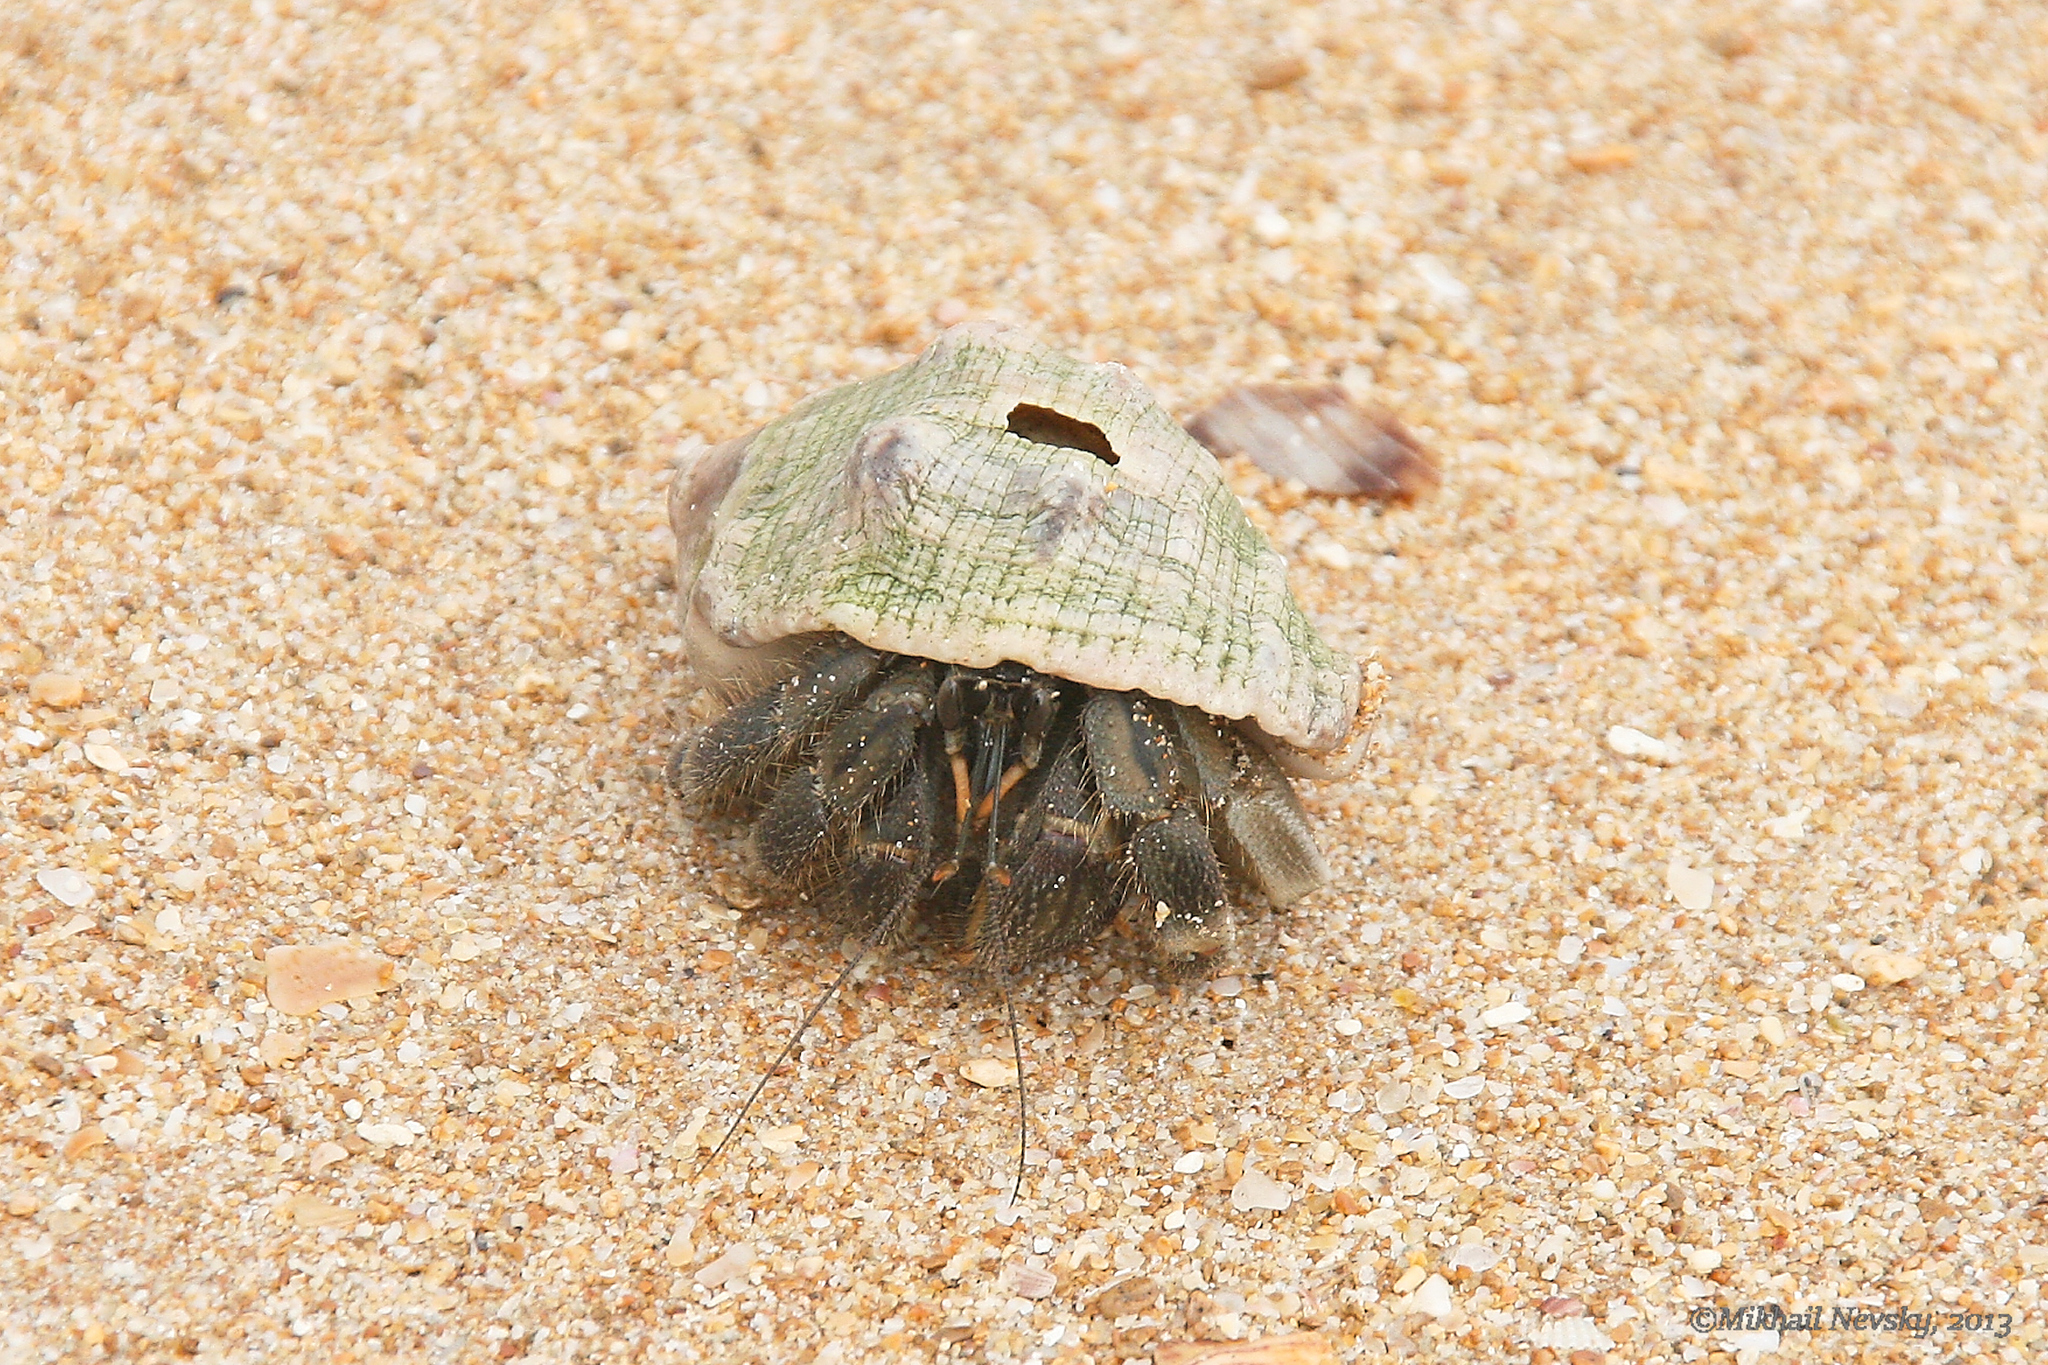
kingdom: Animalia
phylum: Arthropoda
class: Malacostraca
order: Decapoda
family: Coenobitidae
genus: Coenobita
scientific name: Coenobita rugosus
